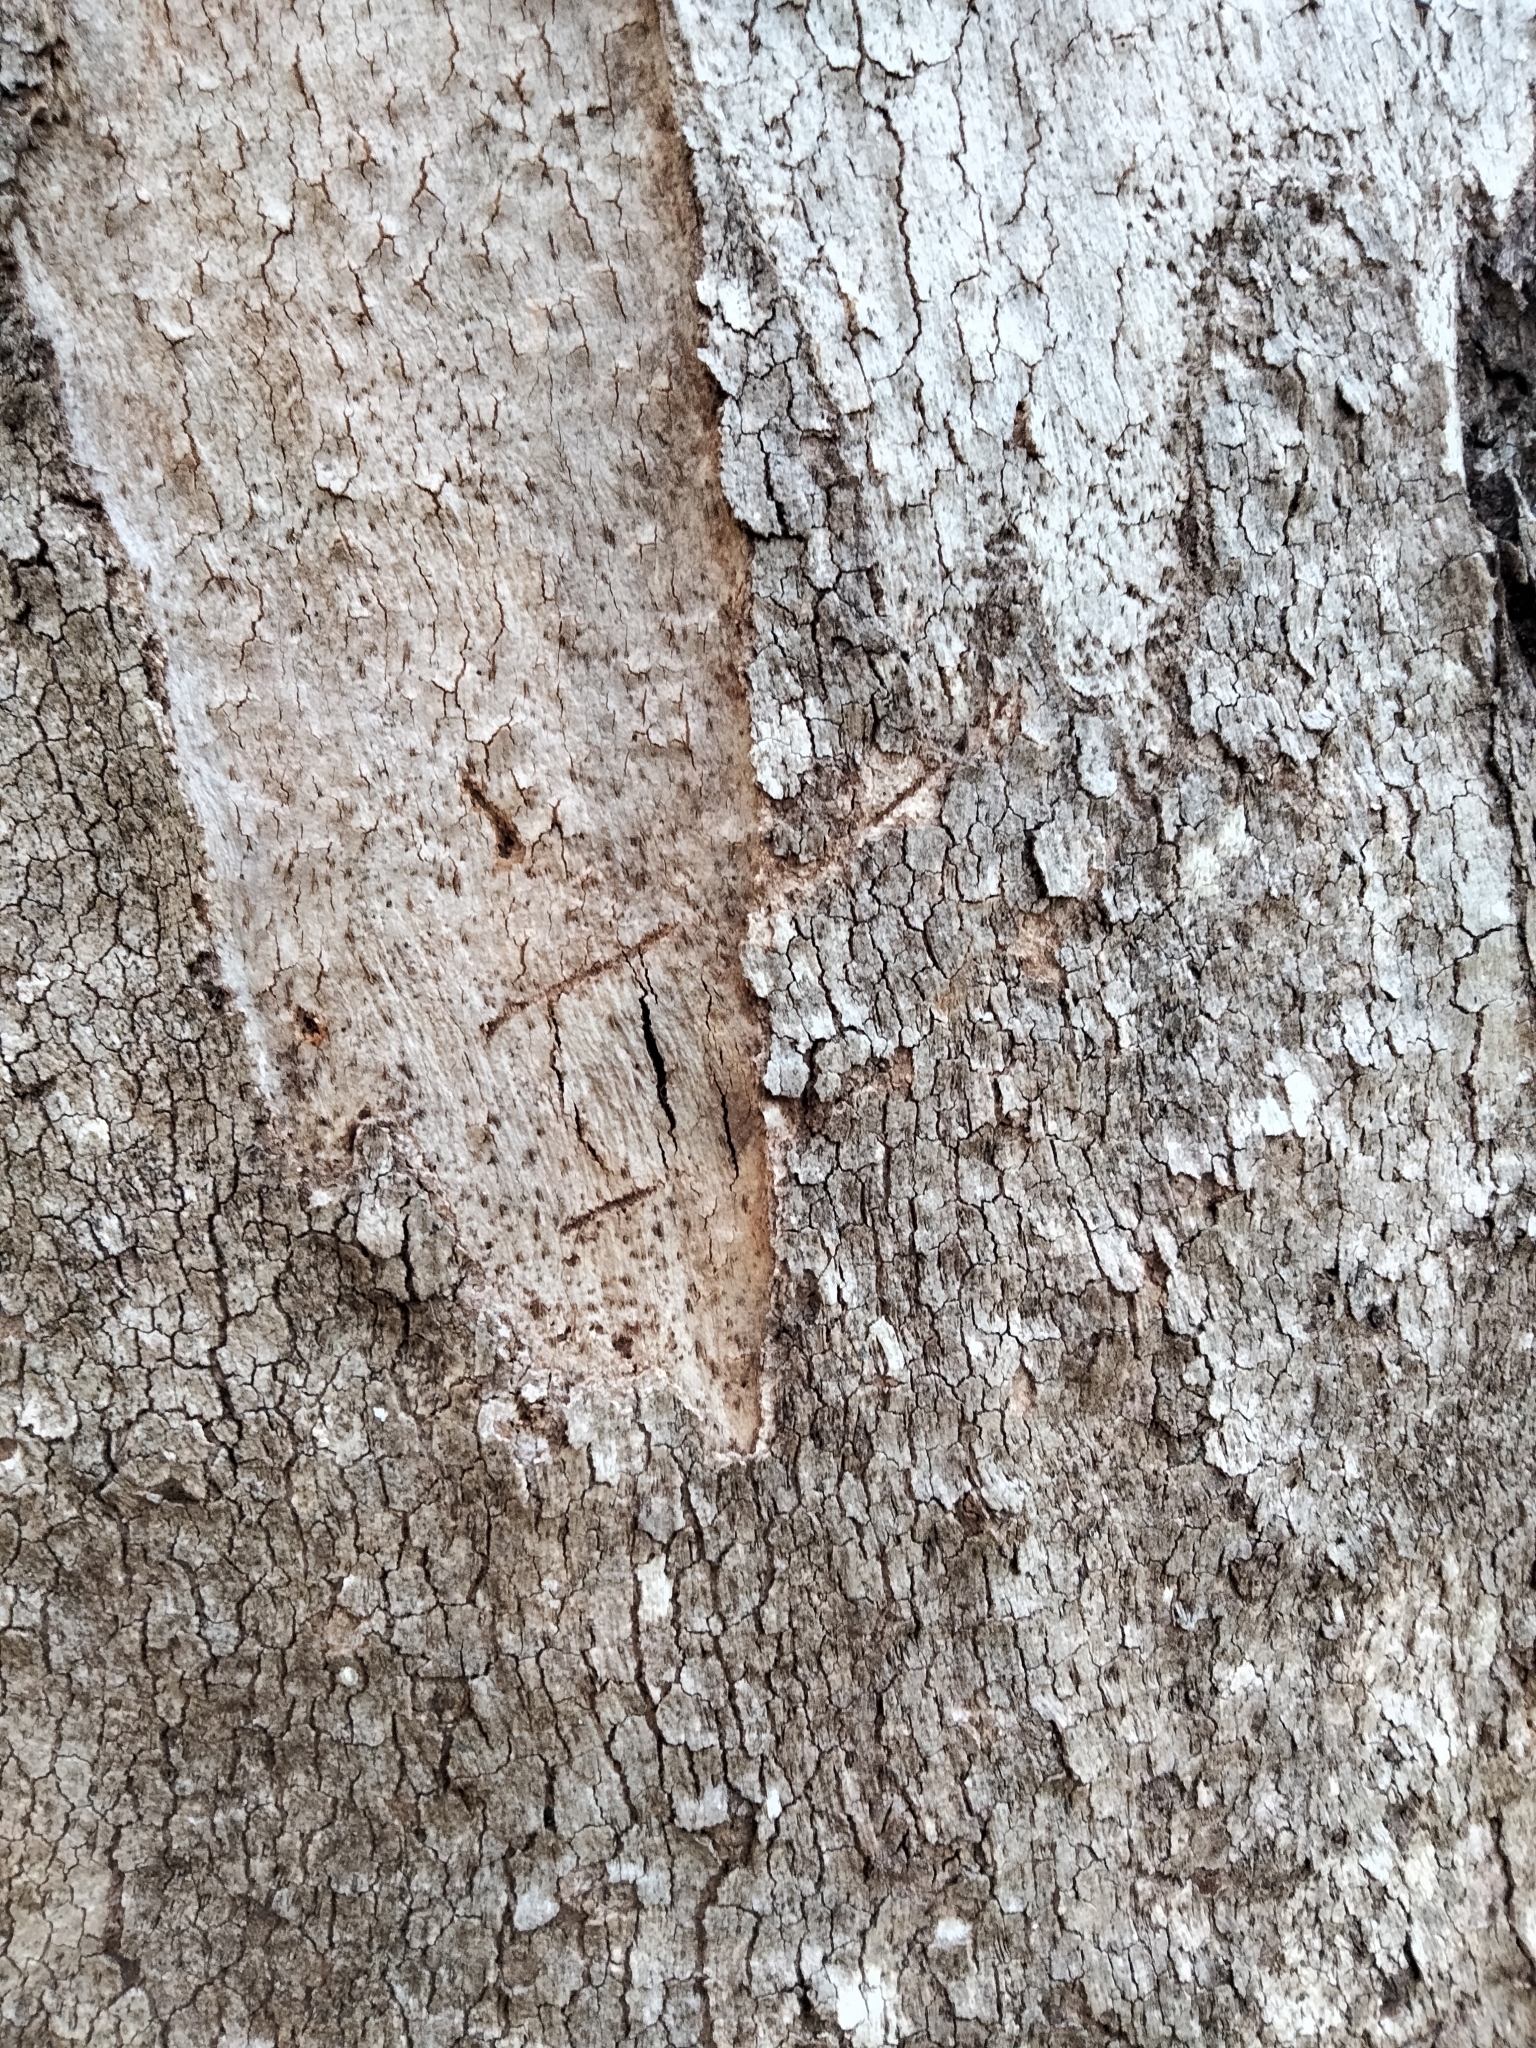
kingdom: Animalia
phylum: Chordata
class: Mammalia
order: Diprotodontia
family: Phascolarctidae
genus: Phascolarctos
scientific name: Phascolarctos cinereus
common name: Koala
